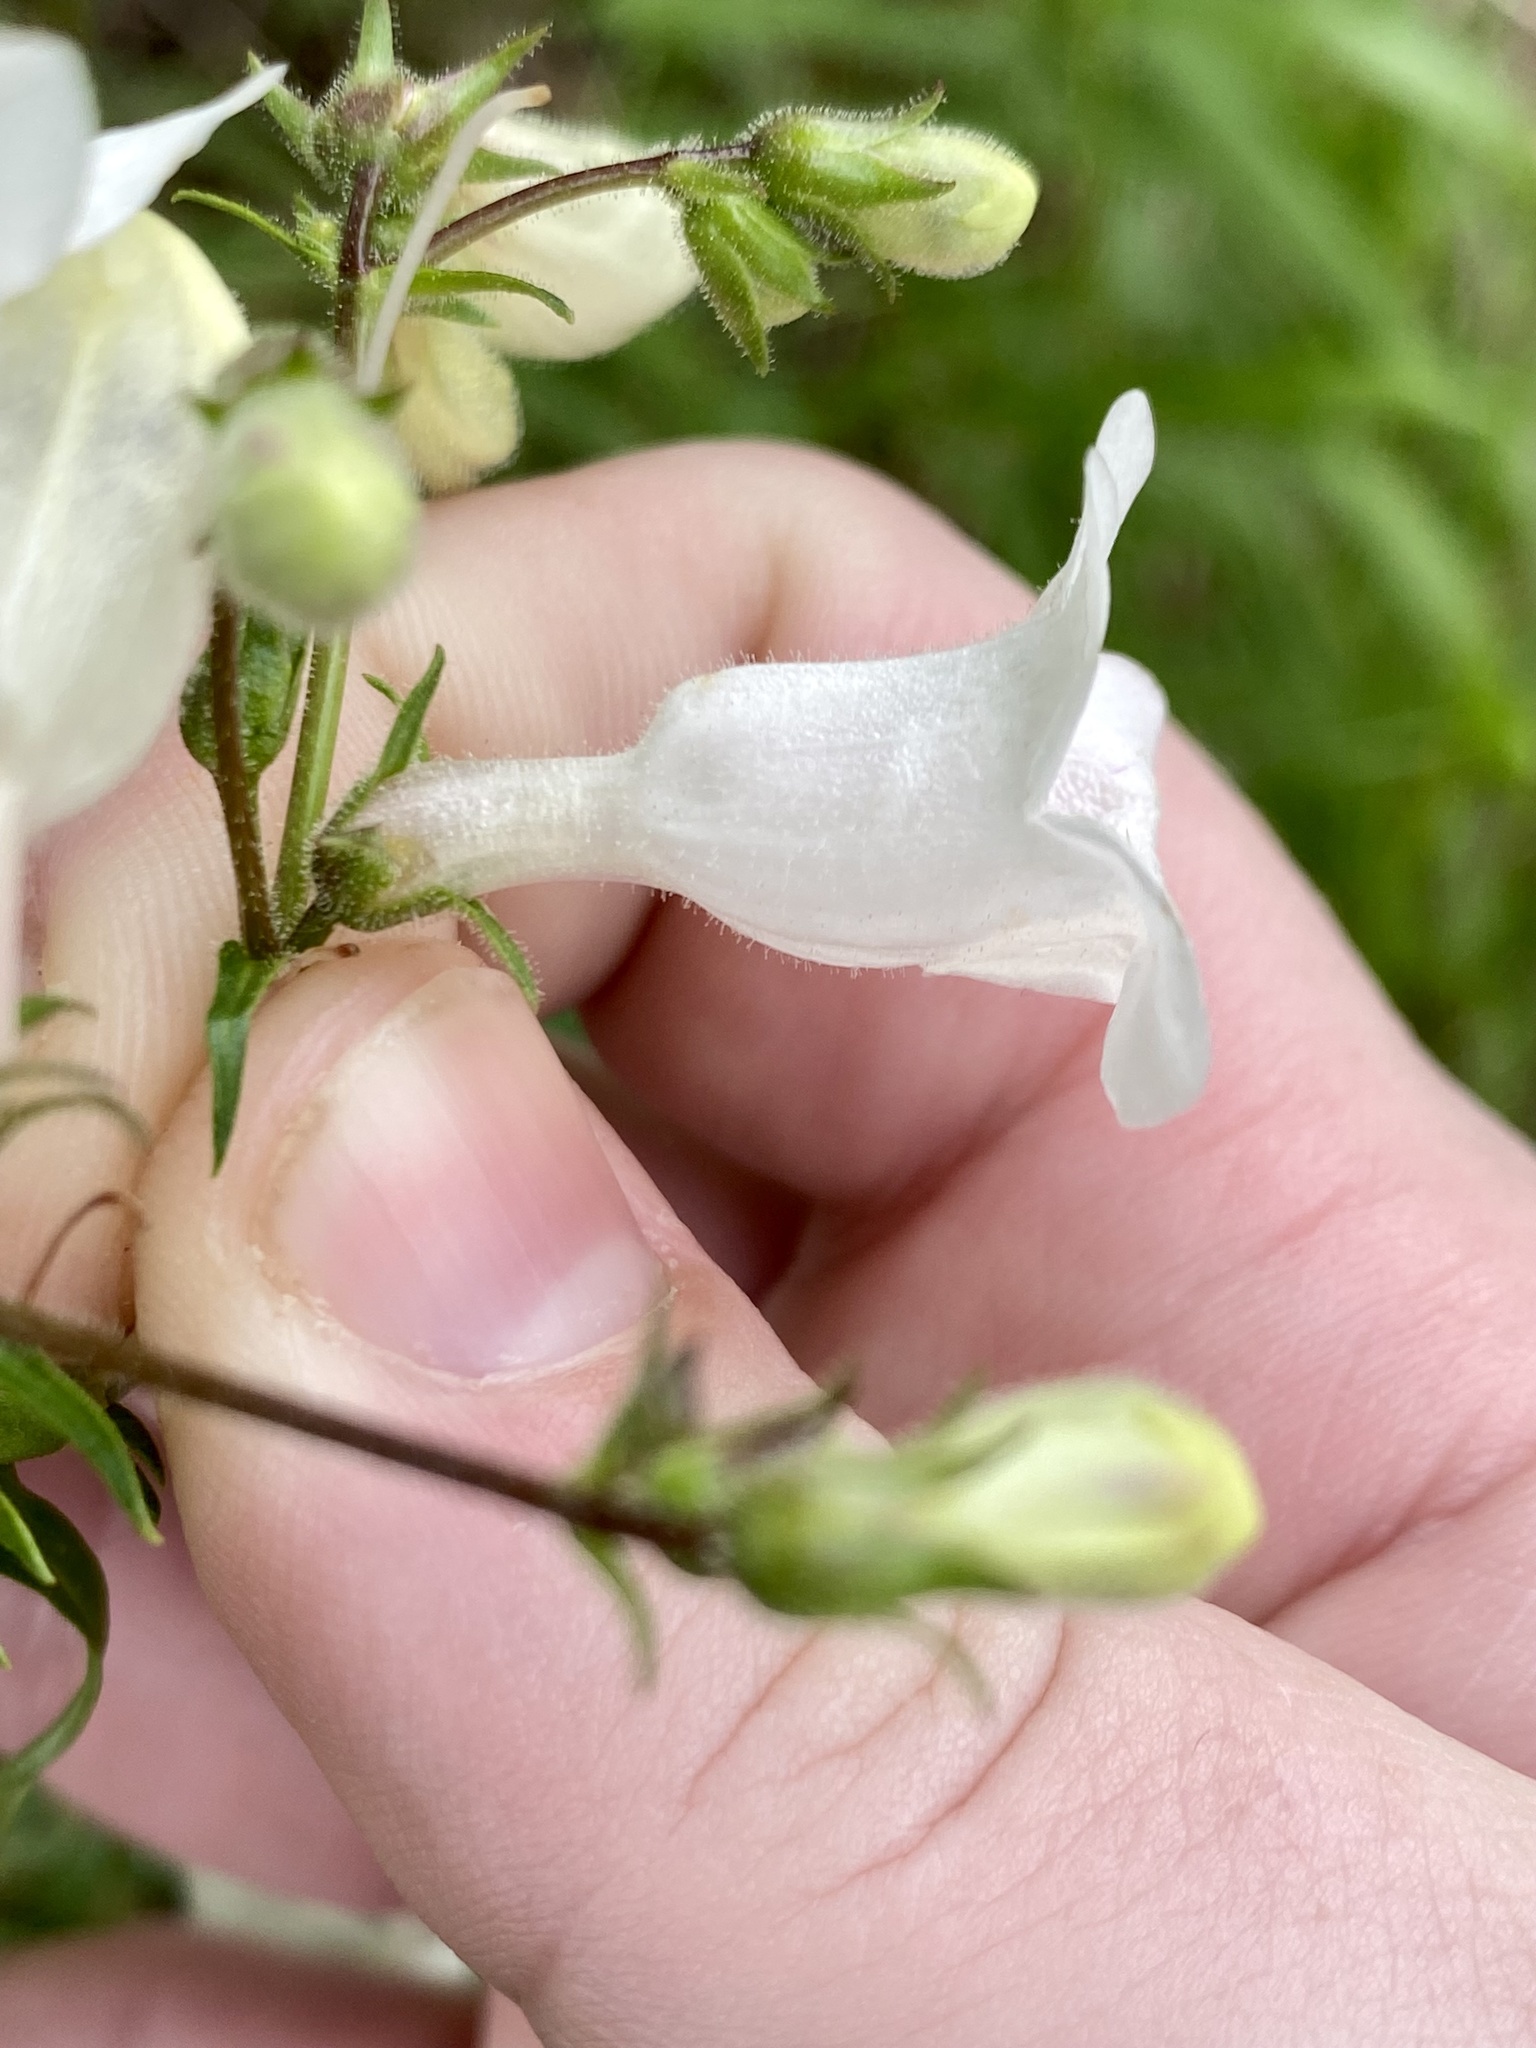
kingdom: Plantae
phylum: Tracheophyta
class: Magnoliopsida
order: Lamiales
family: Plantaginaceae
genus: Penstemon
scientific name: Penstemon digitalis
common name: Foxglove beardtongue
